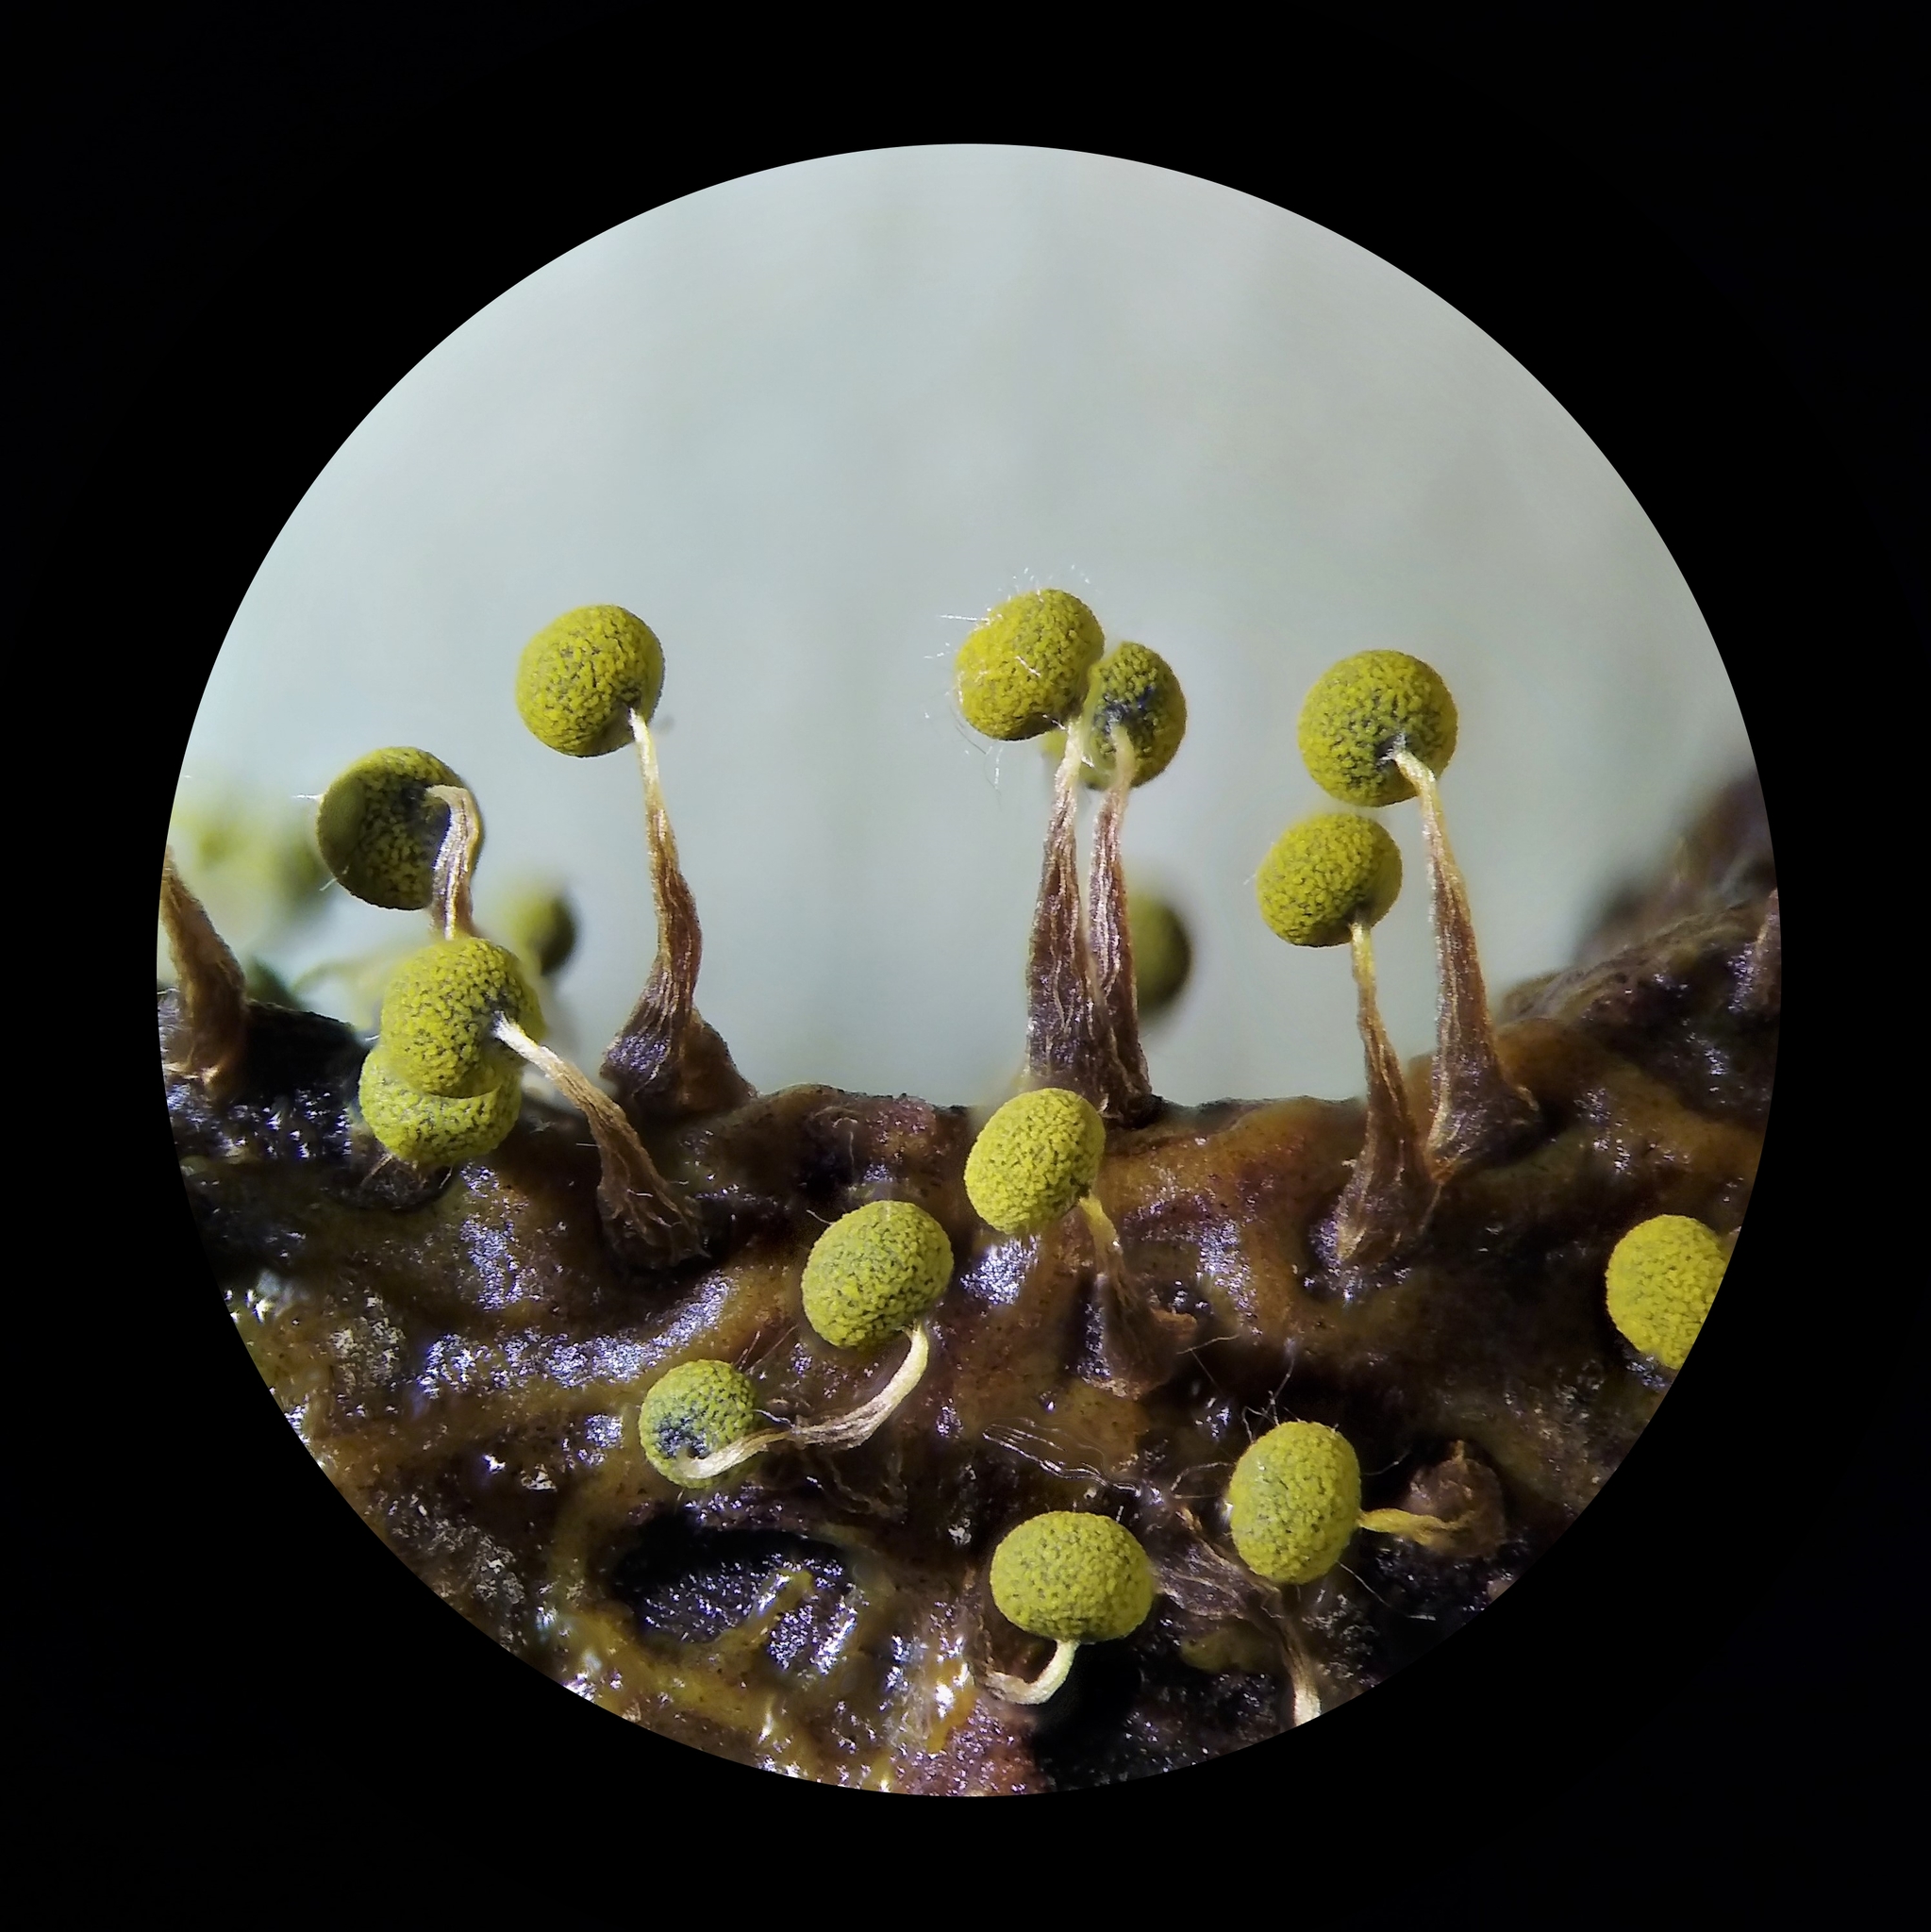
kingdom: Protozoa
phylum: Mycetozoa
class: Myxomycetes
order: Physarales
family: Physaraceae
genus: Physarum
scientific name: Physarum viride
